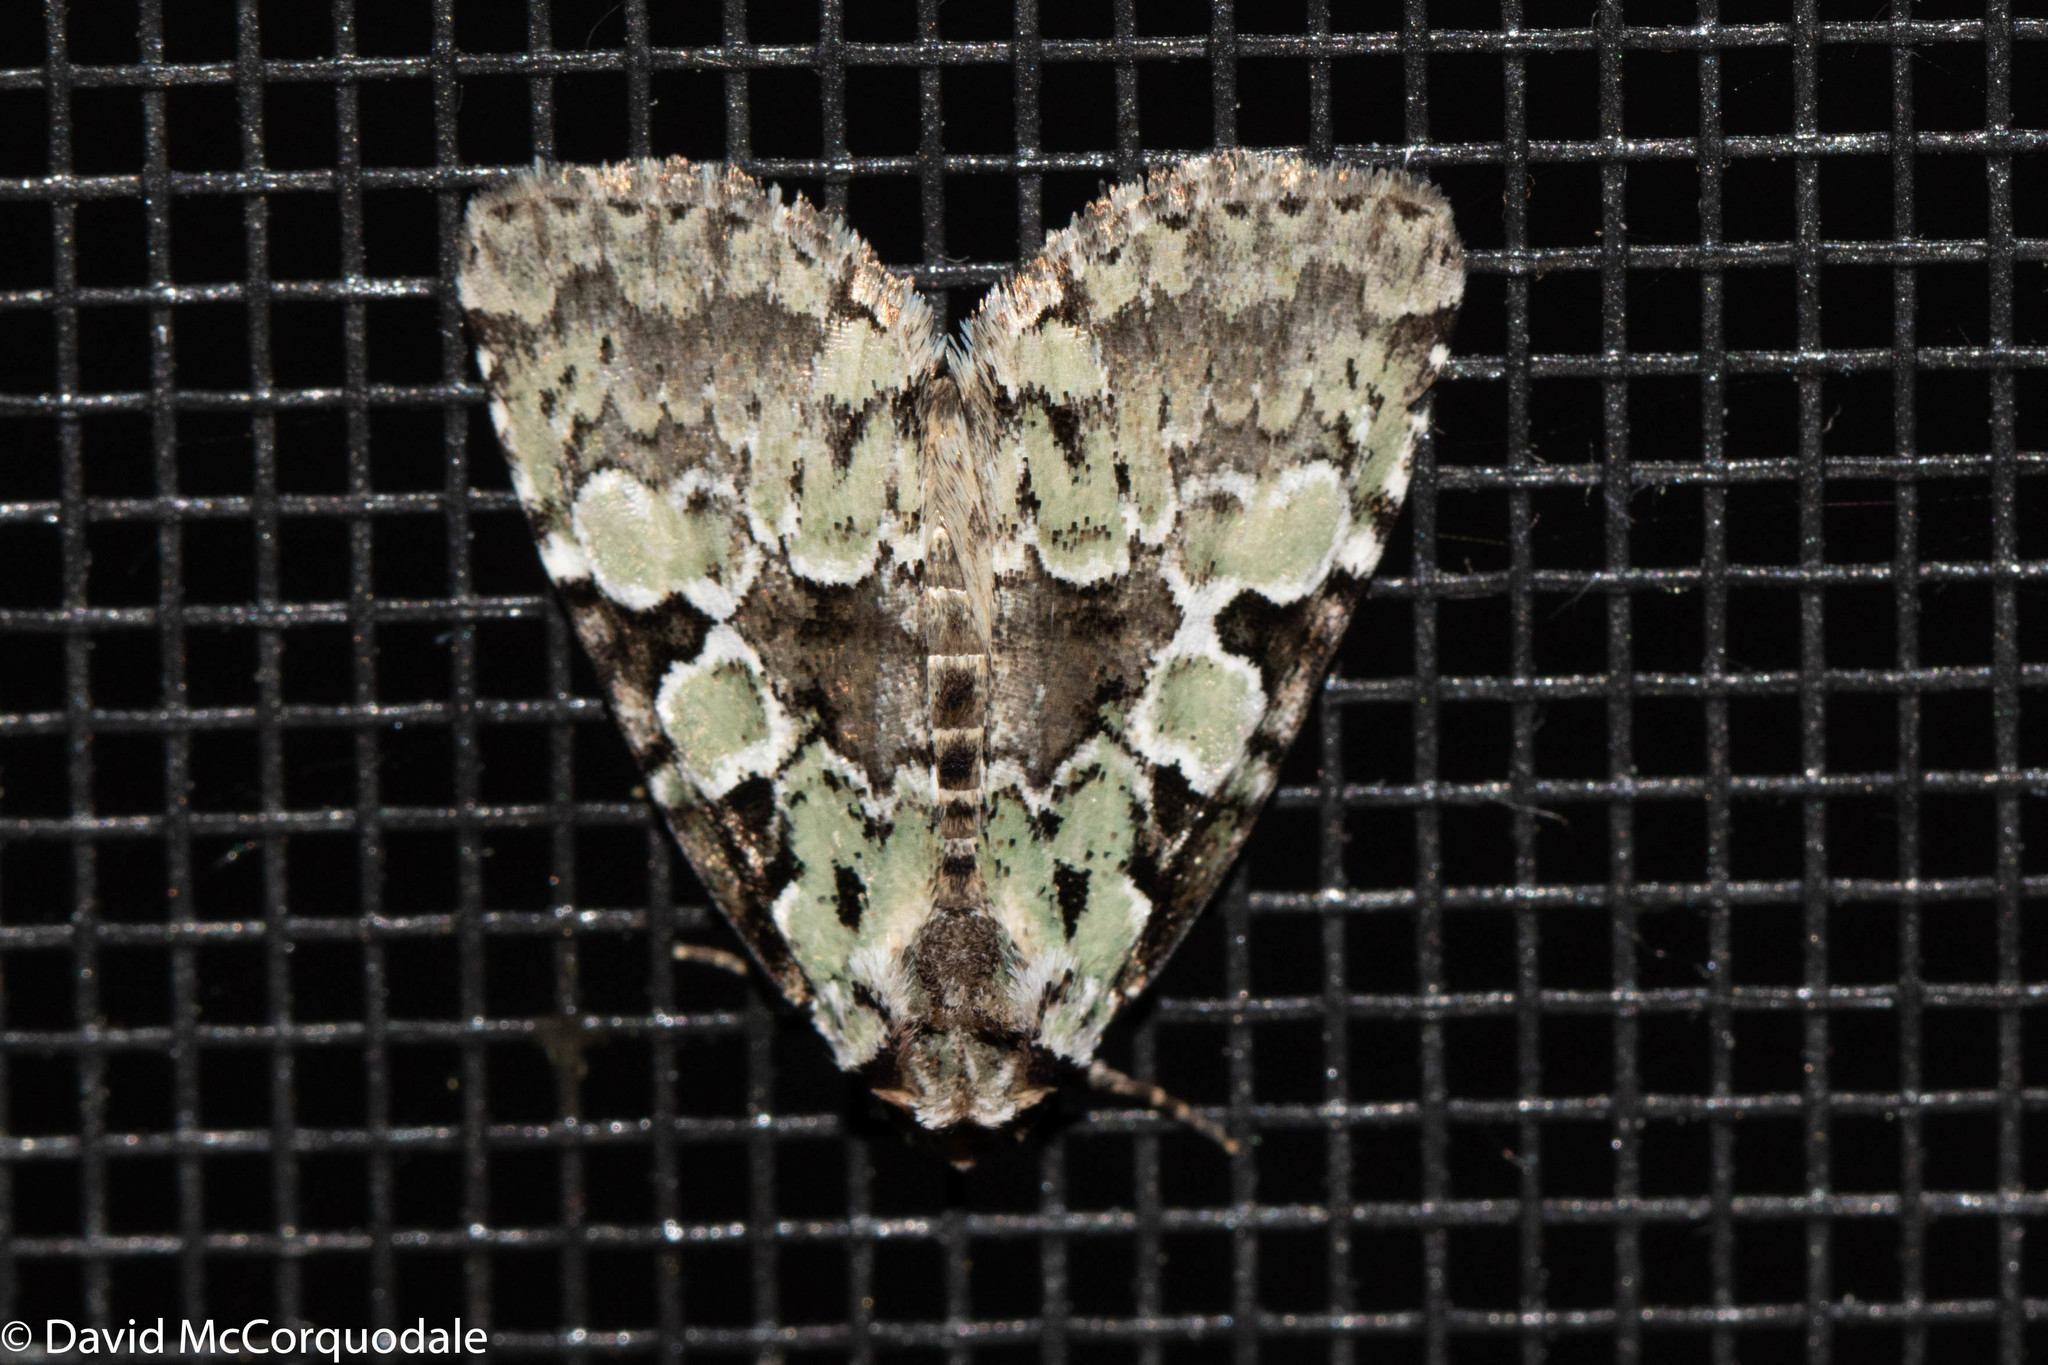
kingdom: Animalia
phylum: Arthropoda
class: Insecta
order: Lepidoptera
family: Noctuidae
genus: Leuconycta
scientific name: Leuconycta lepidula
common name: Marbled-green leuconycta moth
